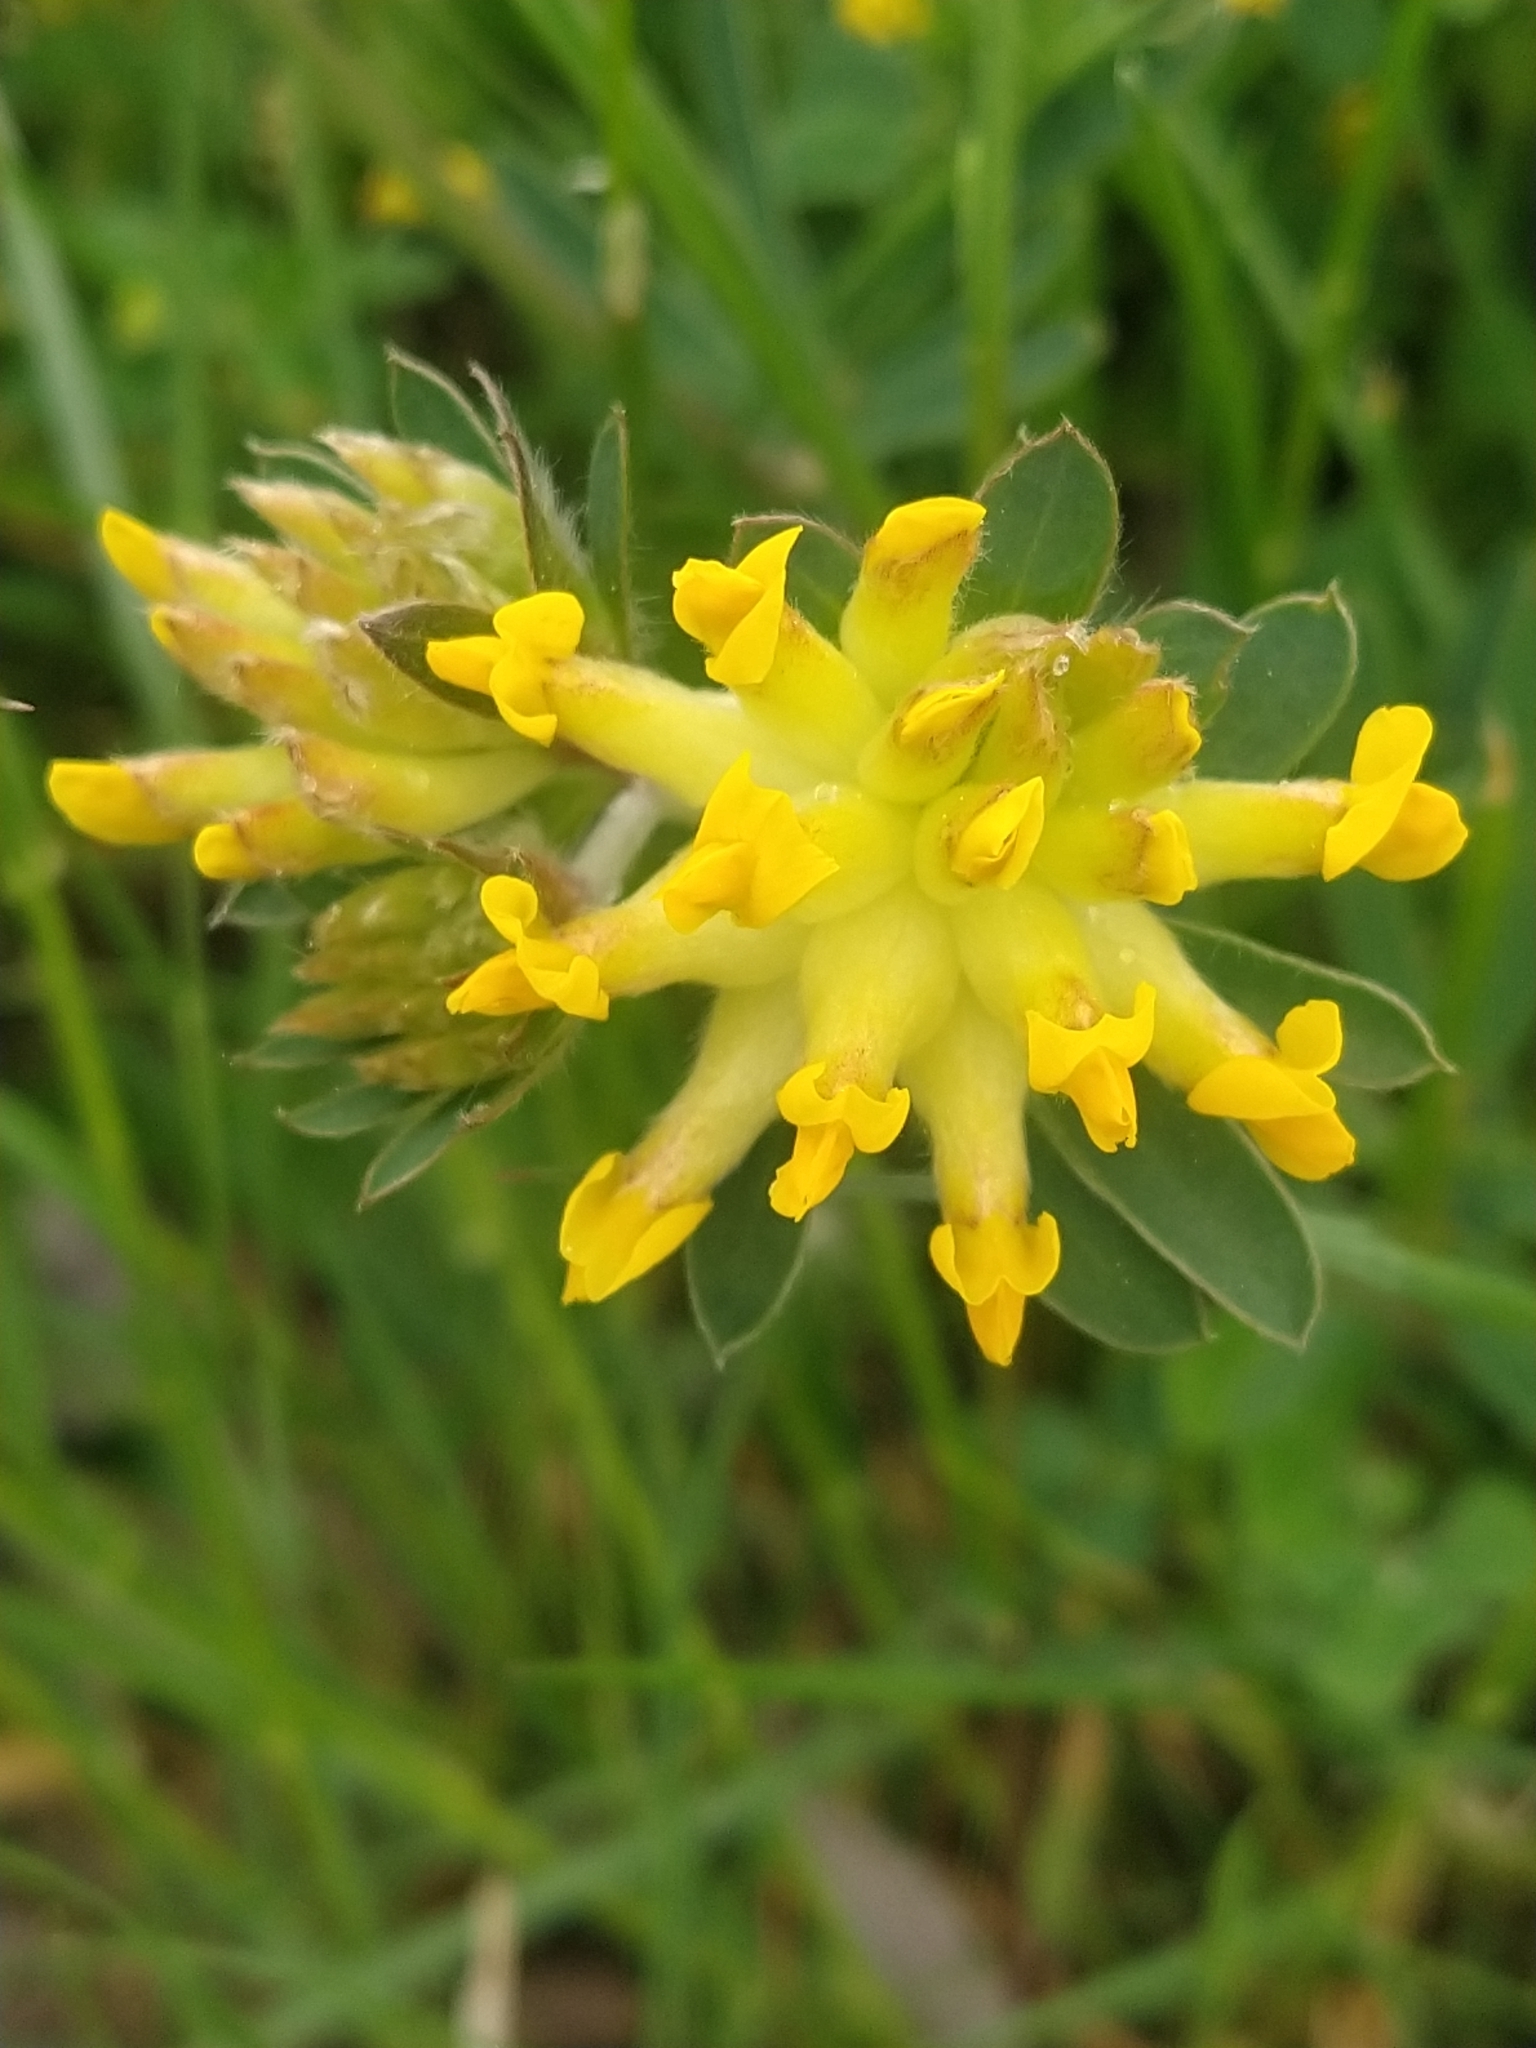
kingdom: Plantae
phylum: Tracheophyta
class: Magnoliopsida
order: Fabales
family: Fabaceae
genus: Anthyllis
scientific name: Anthyllis vulneraria
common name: Kidney vetch
